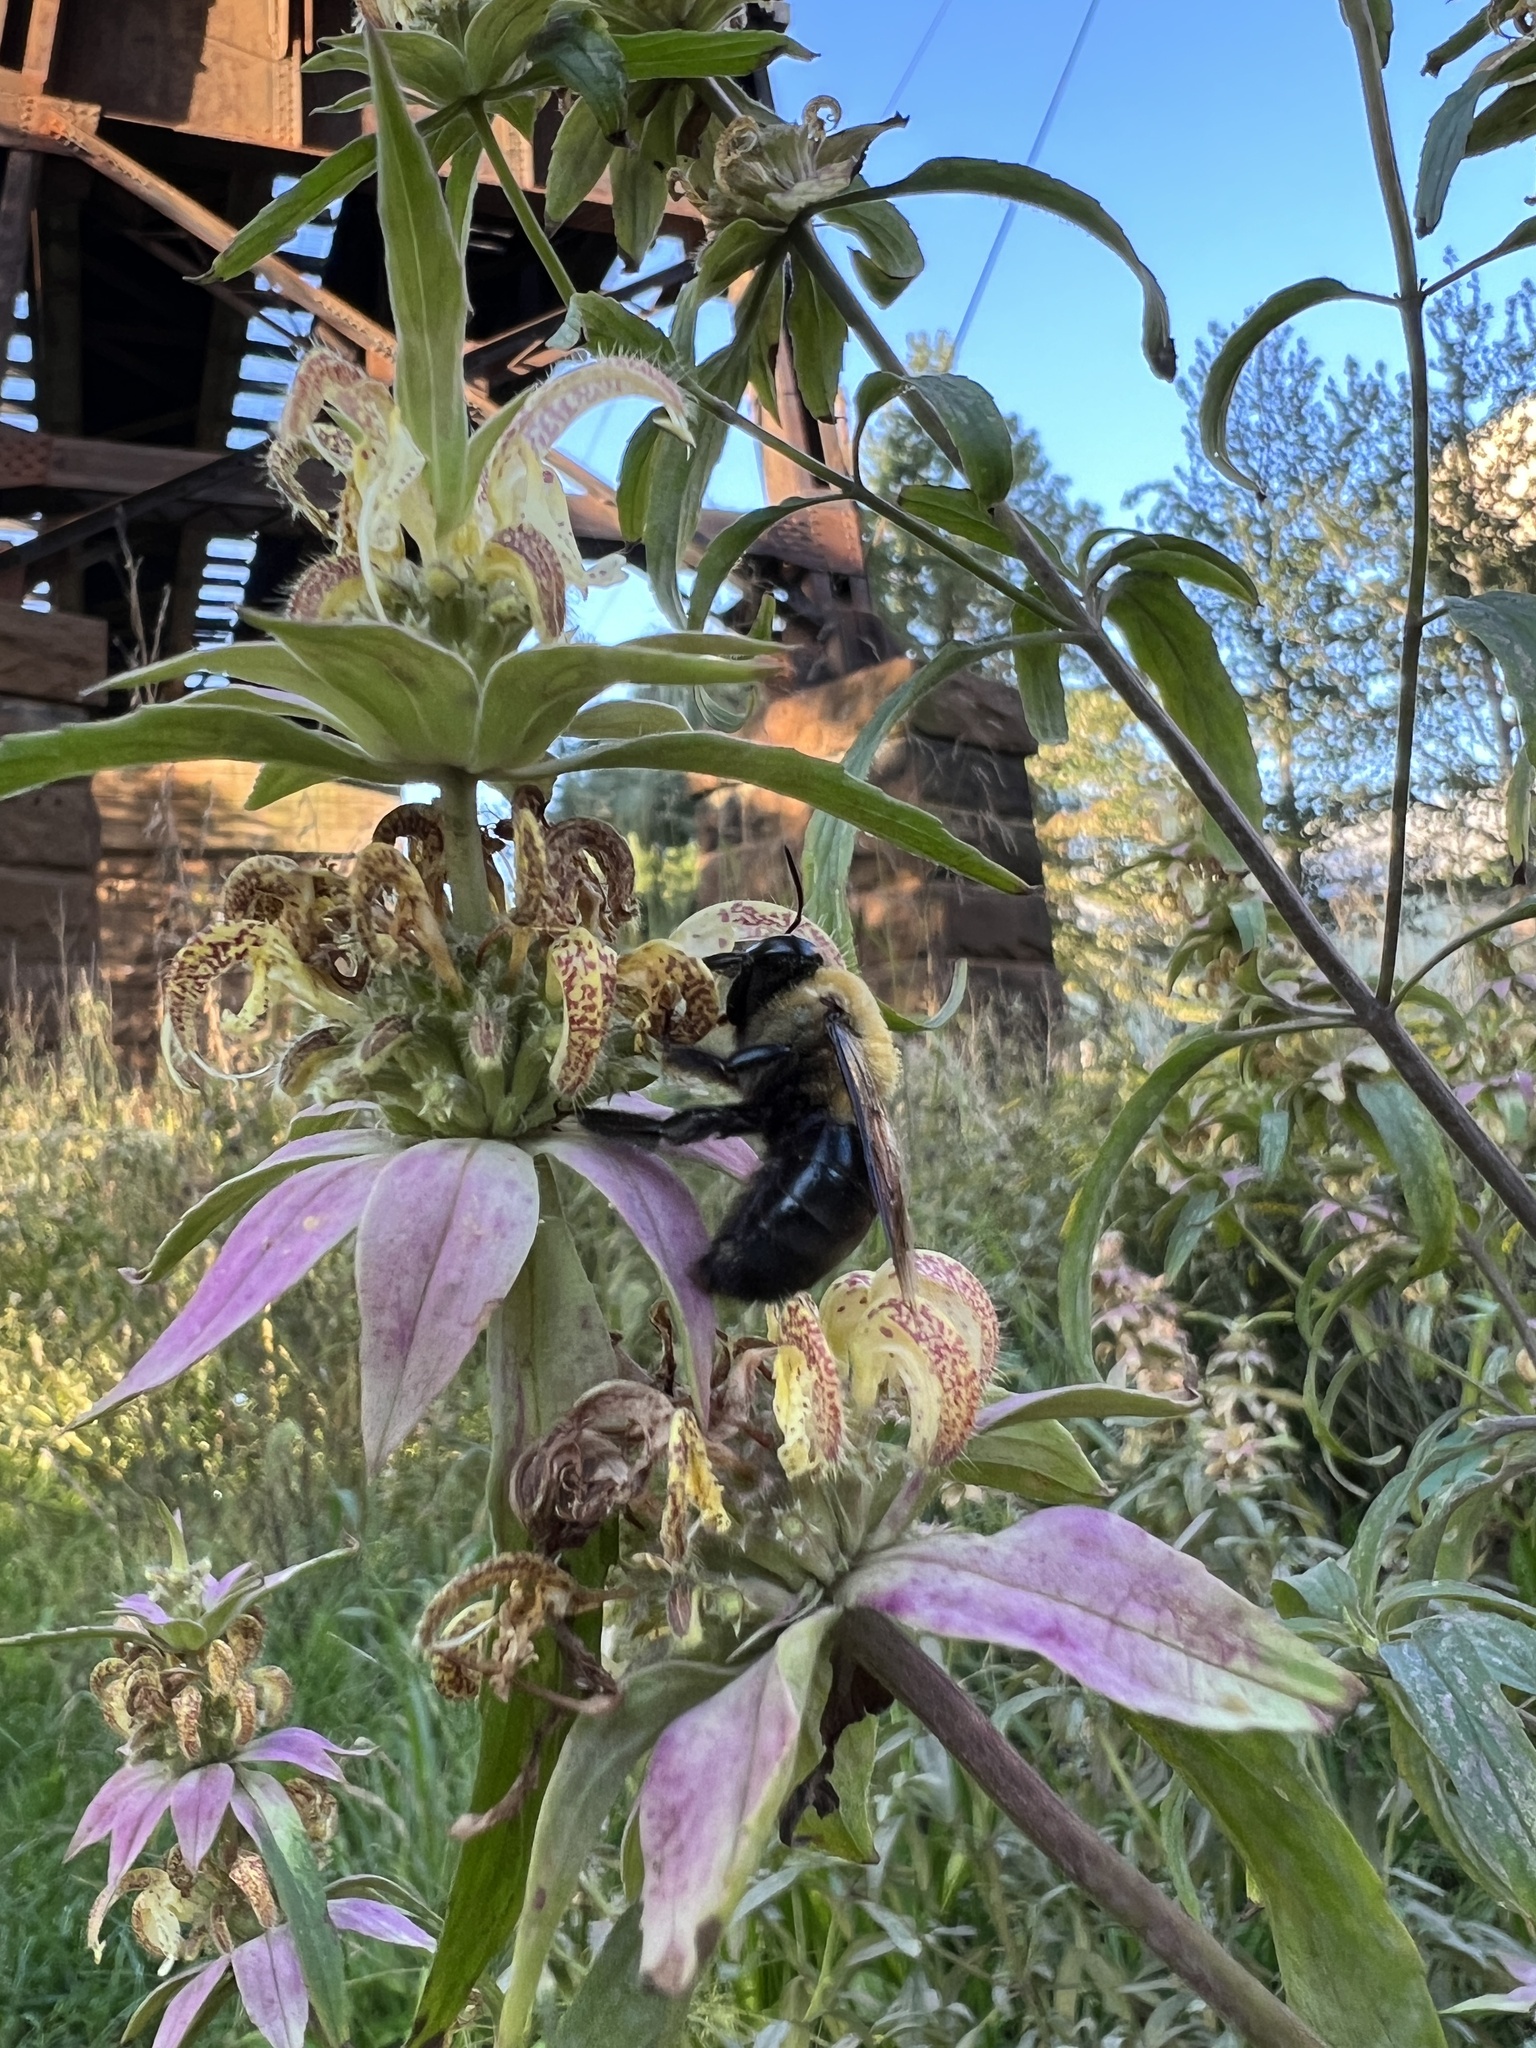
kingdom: Animalia
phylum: Arthropoda
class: Insecta
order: Hymenoptera
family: Apidae
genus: Xylocopa
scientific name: Xylocopa virginica
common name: Carpenter bee
